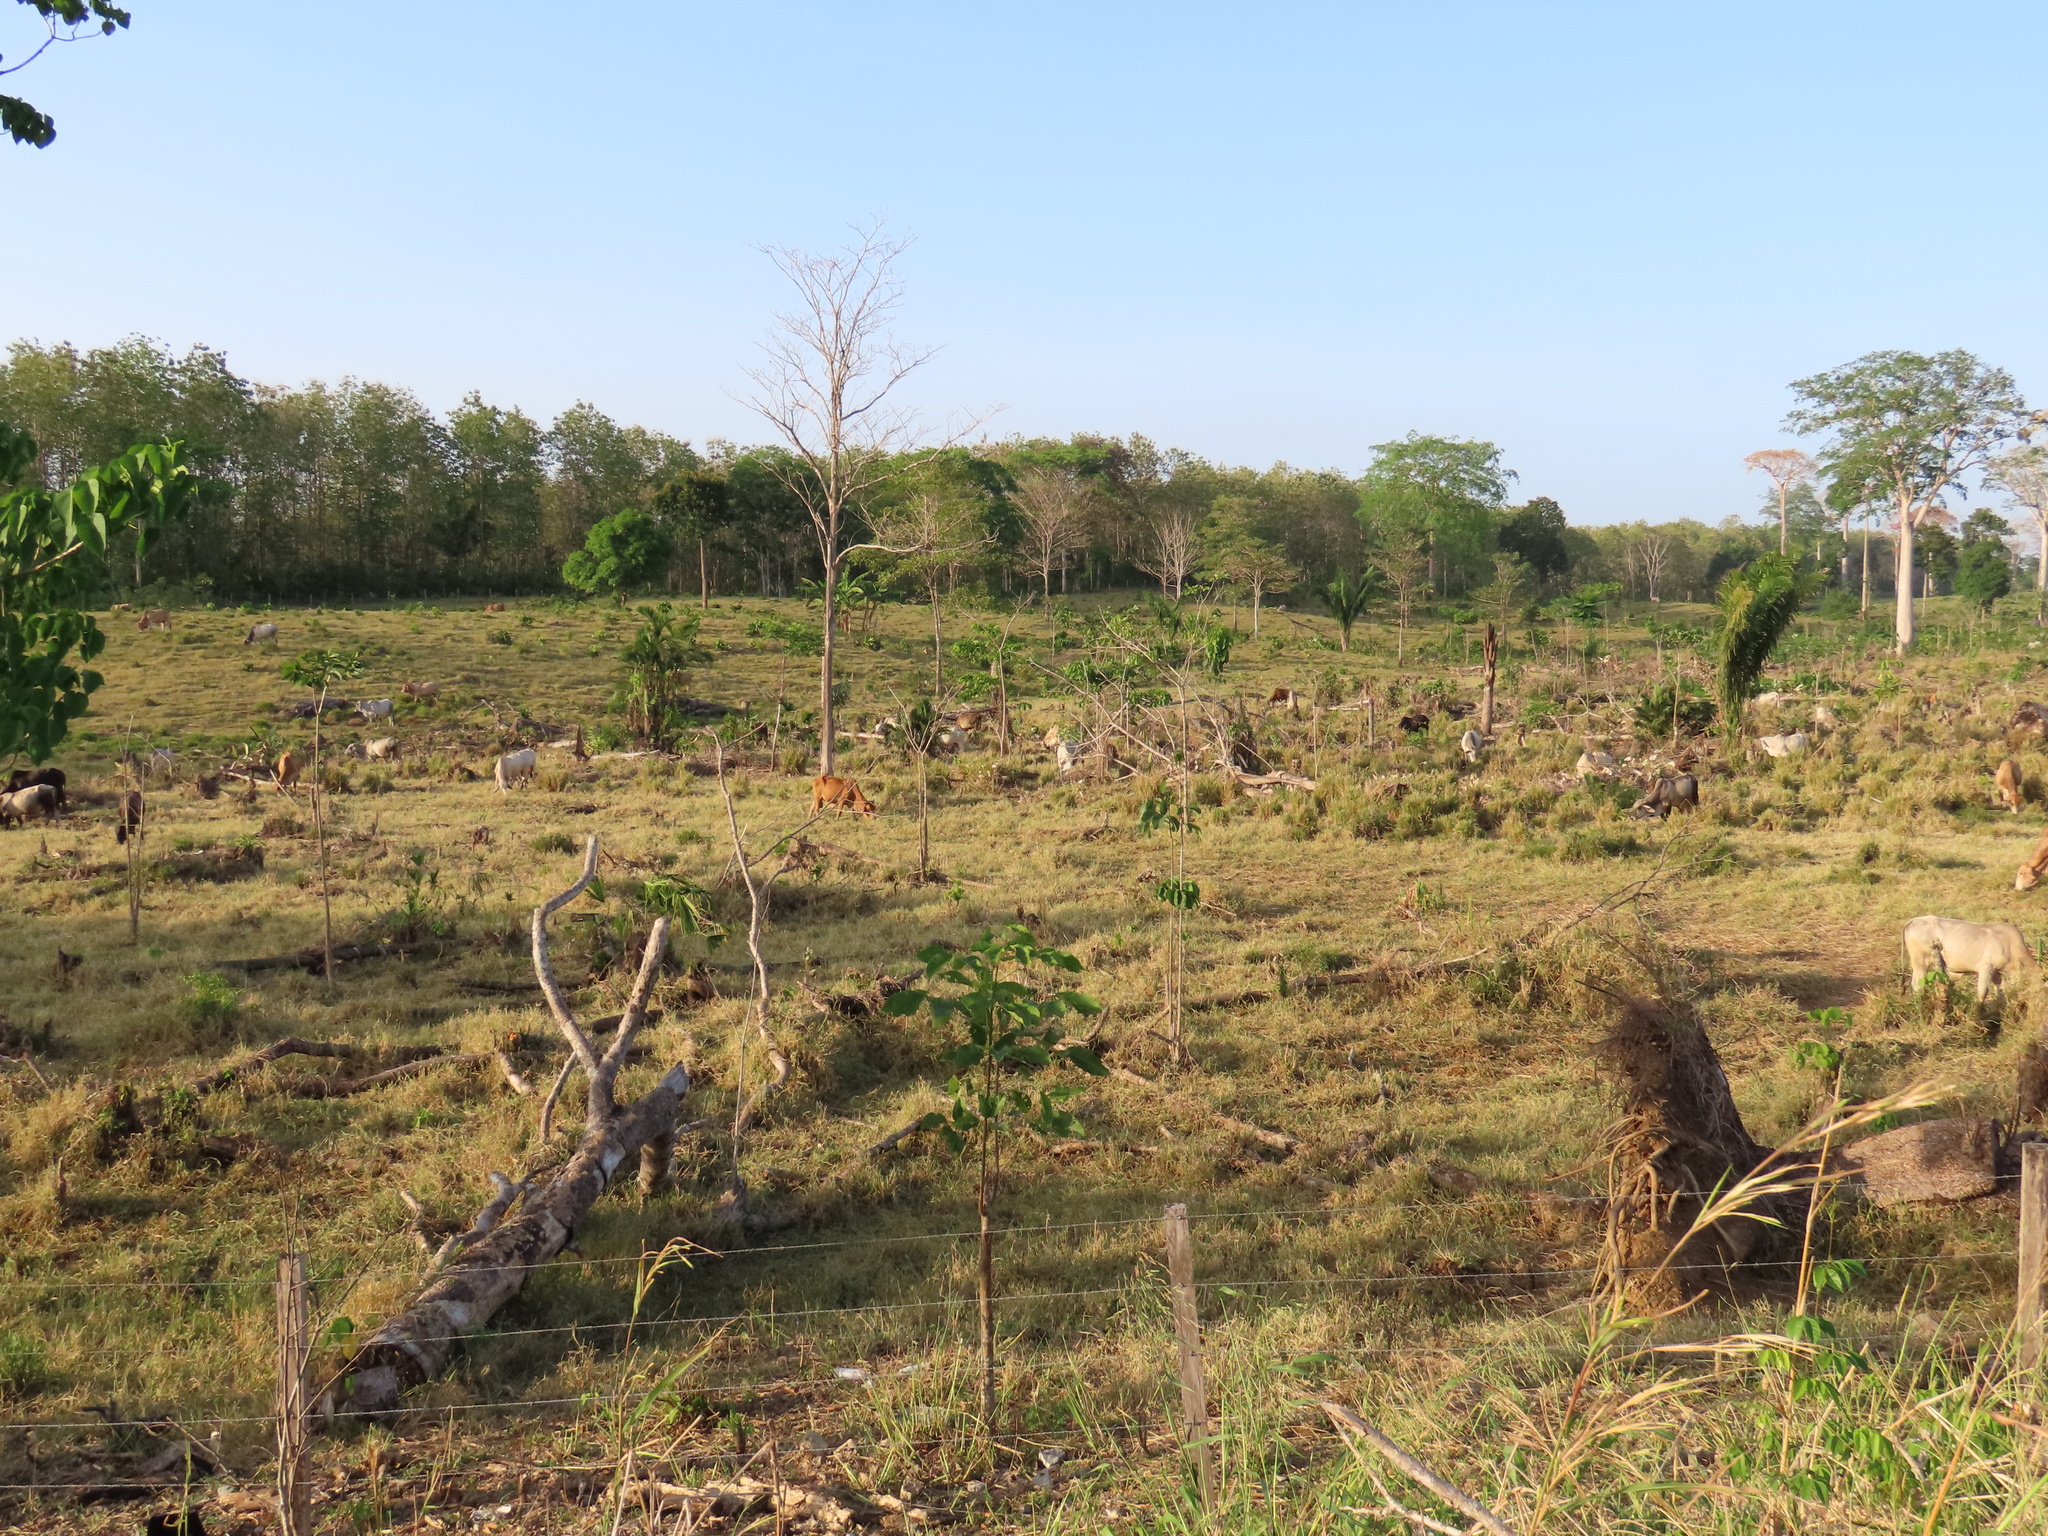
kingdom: Animalia
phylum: Chordata
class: Mammalia
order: Artiodactyla
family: Bovidae
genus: Bos
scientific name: Bos taurus
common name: Domesticated cattle
